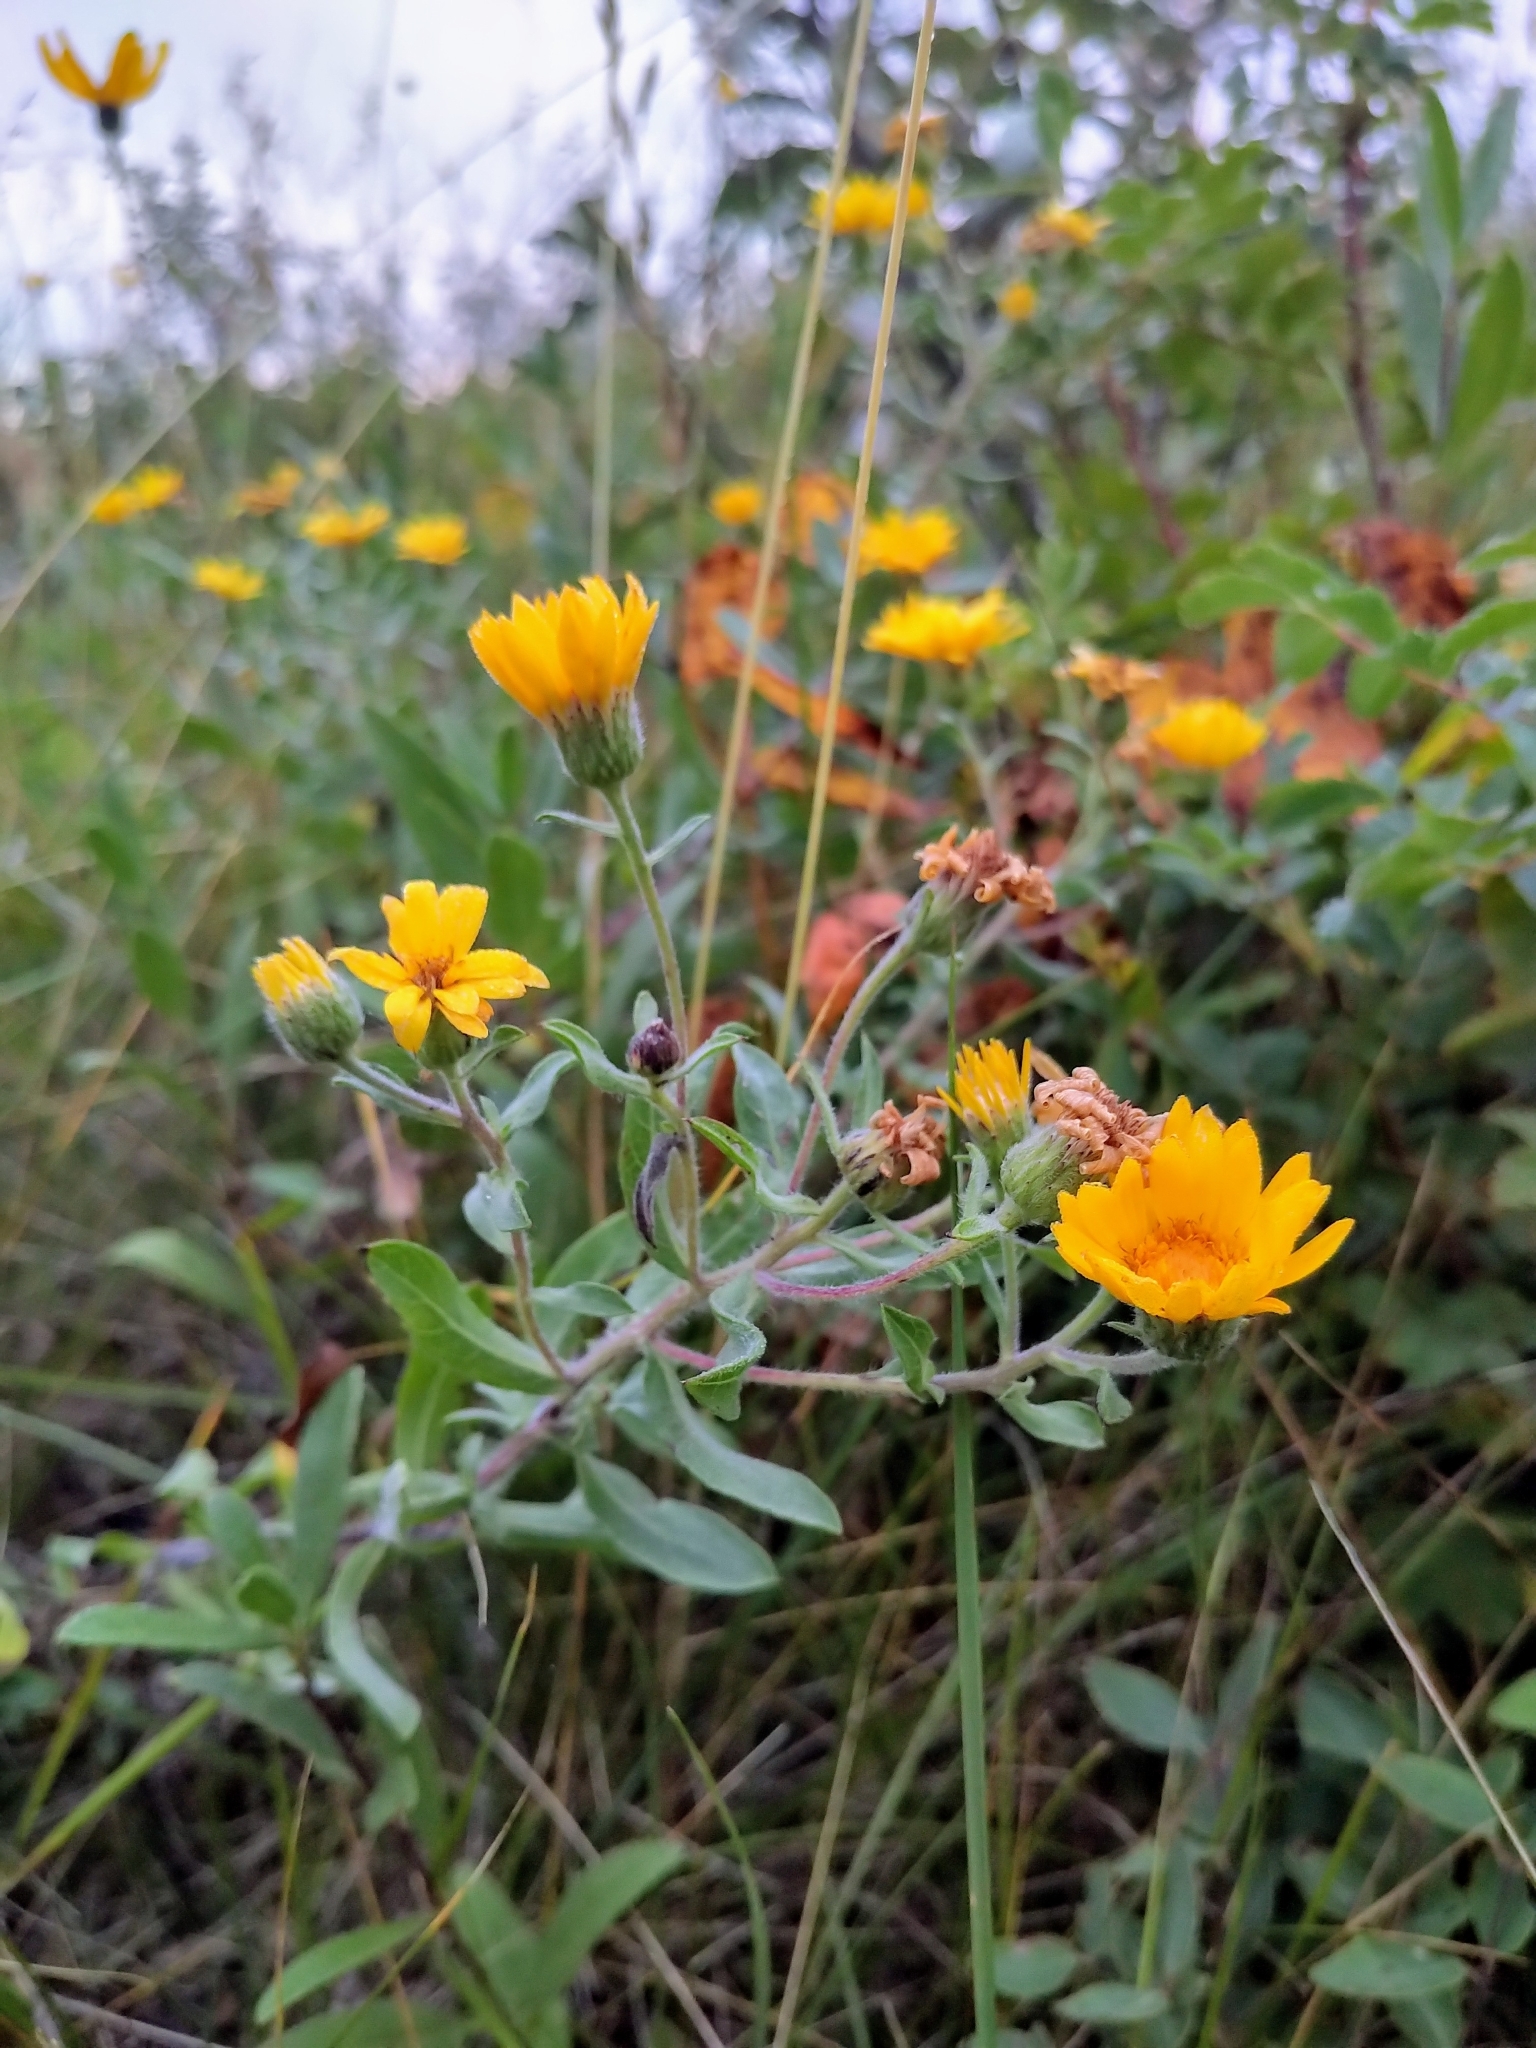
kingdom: Plantae
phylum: Tracheophyta
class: Magnoliopsida
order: Asterales
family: Asteraceae
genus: Heterotheca
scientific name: Heterotheca villosa
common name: Hairy false goldenaster
